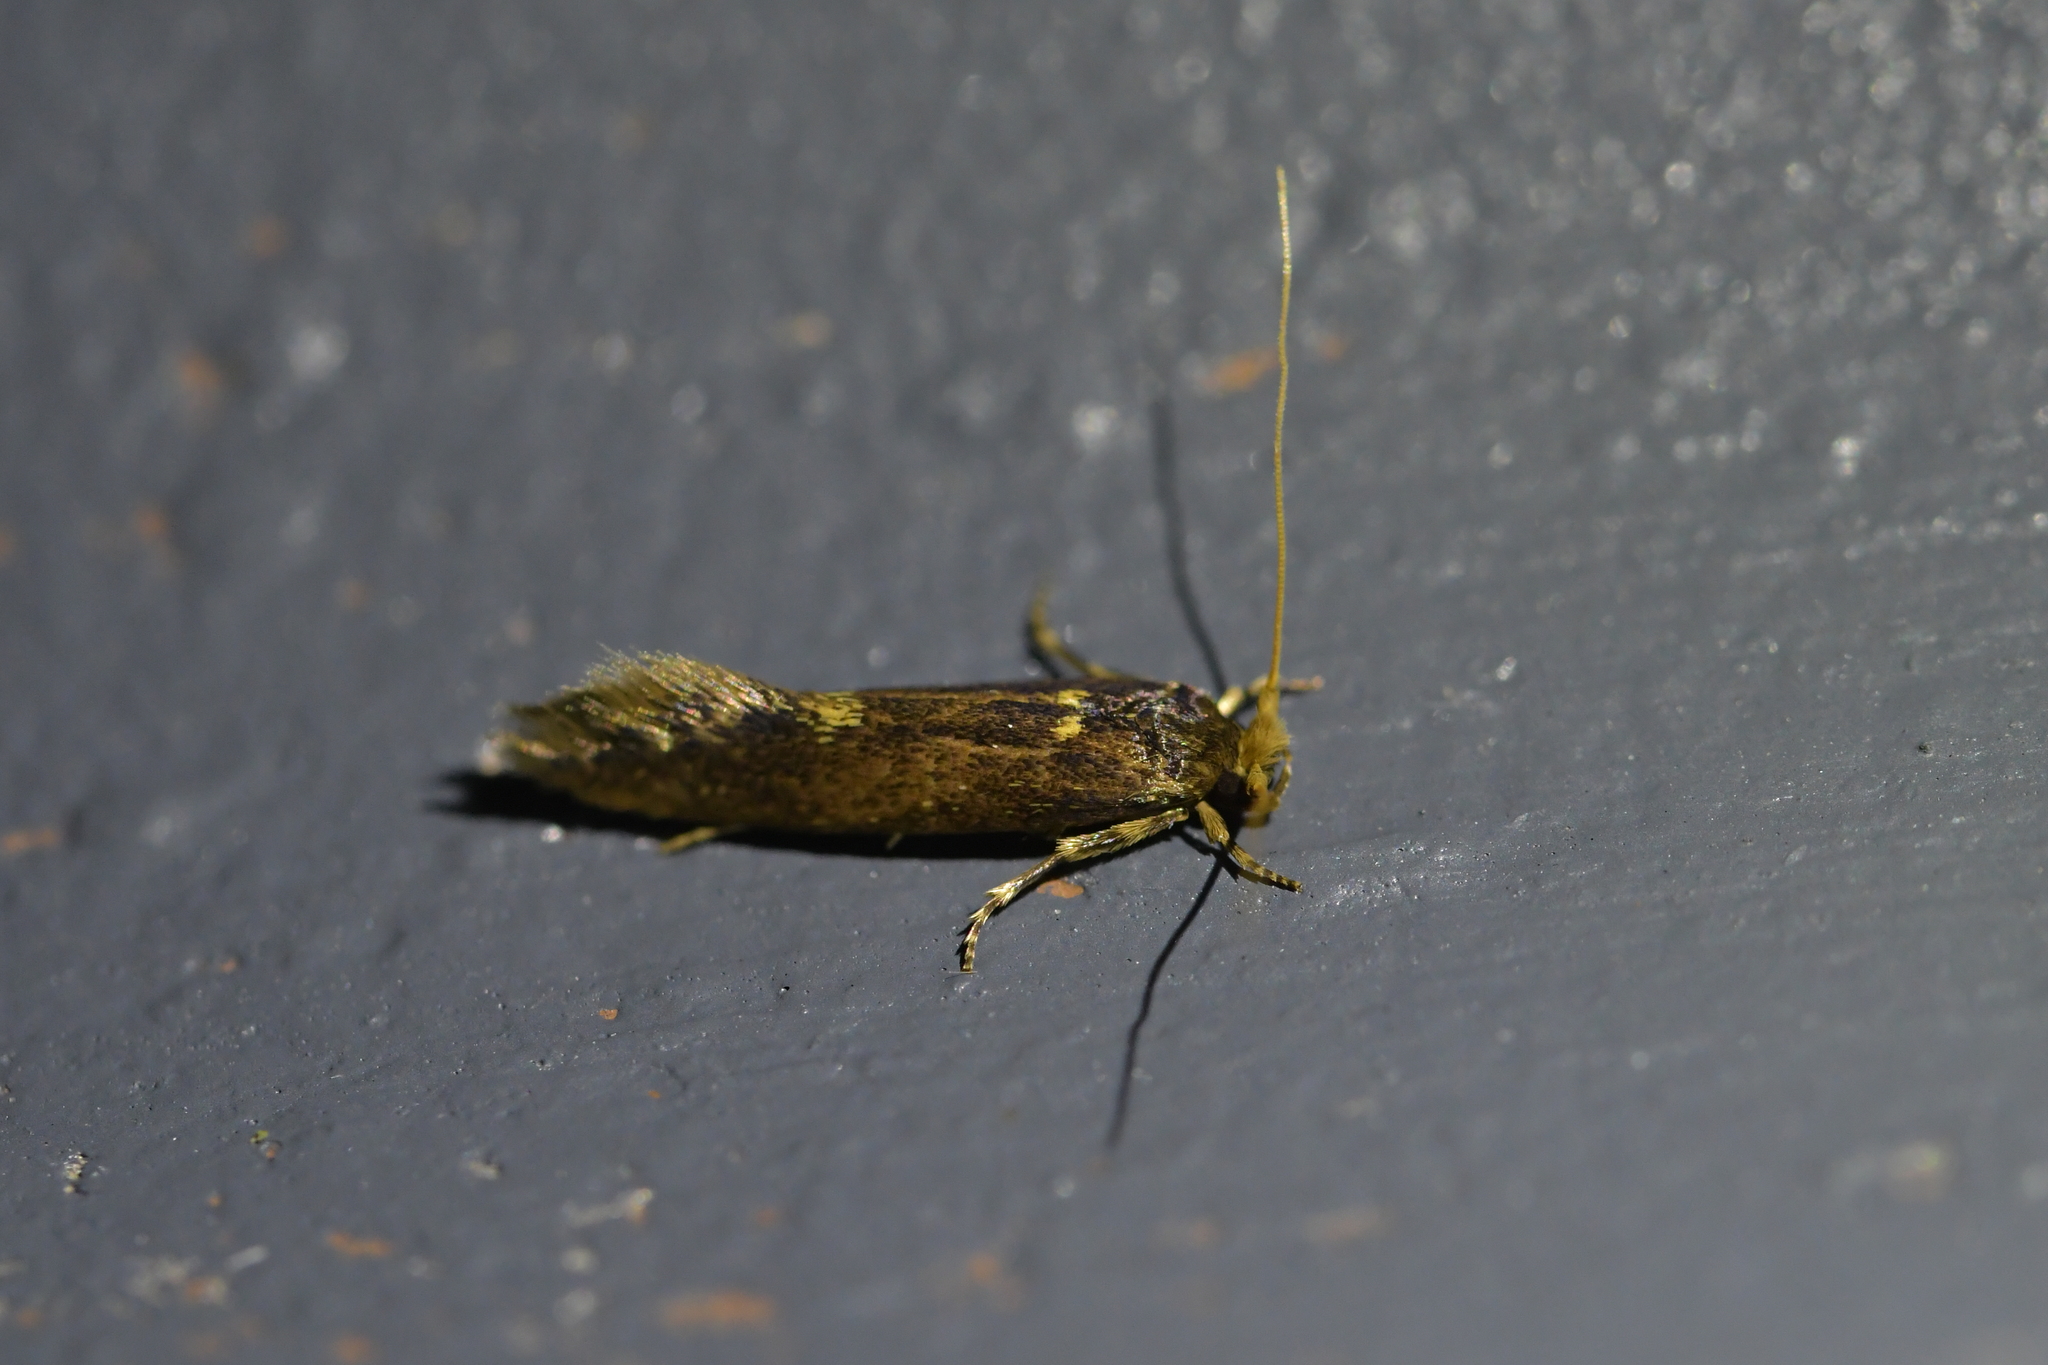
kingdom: Animalia
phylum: Arthropoda
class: Insecta
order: Lepidoptera
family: Tineidae
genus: Opogona
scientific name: Opogona omoscopa
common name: Moth
